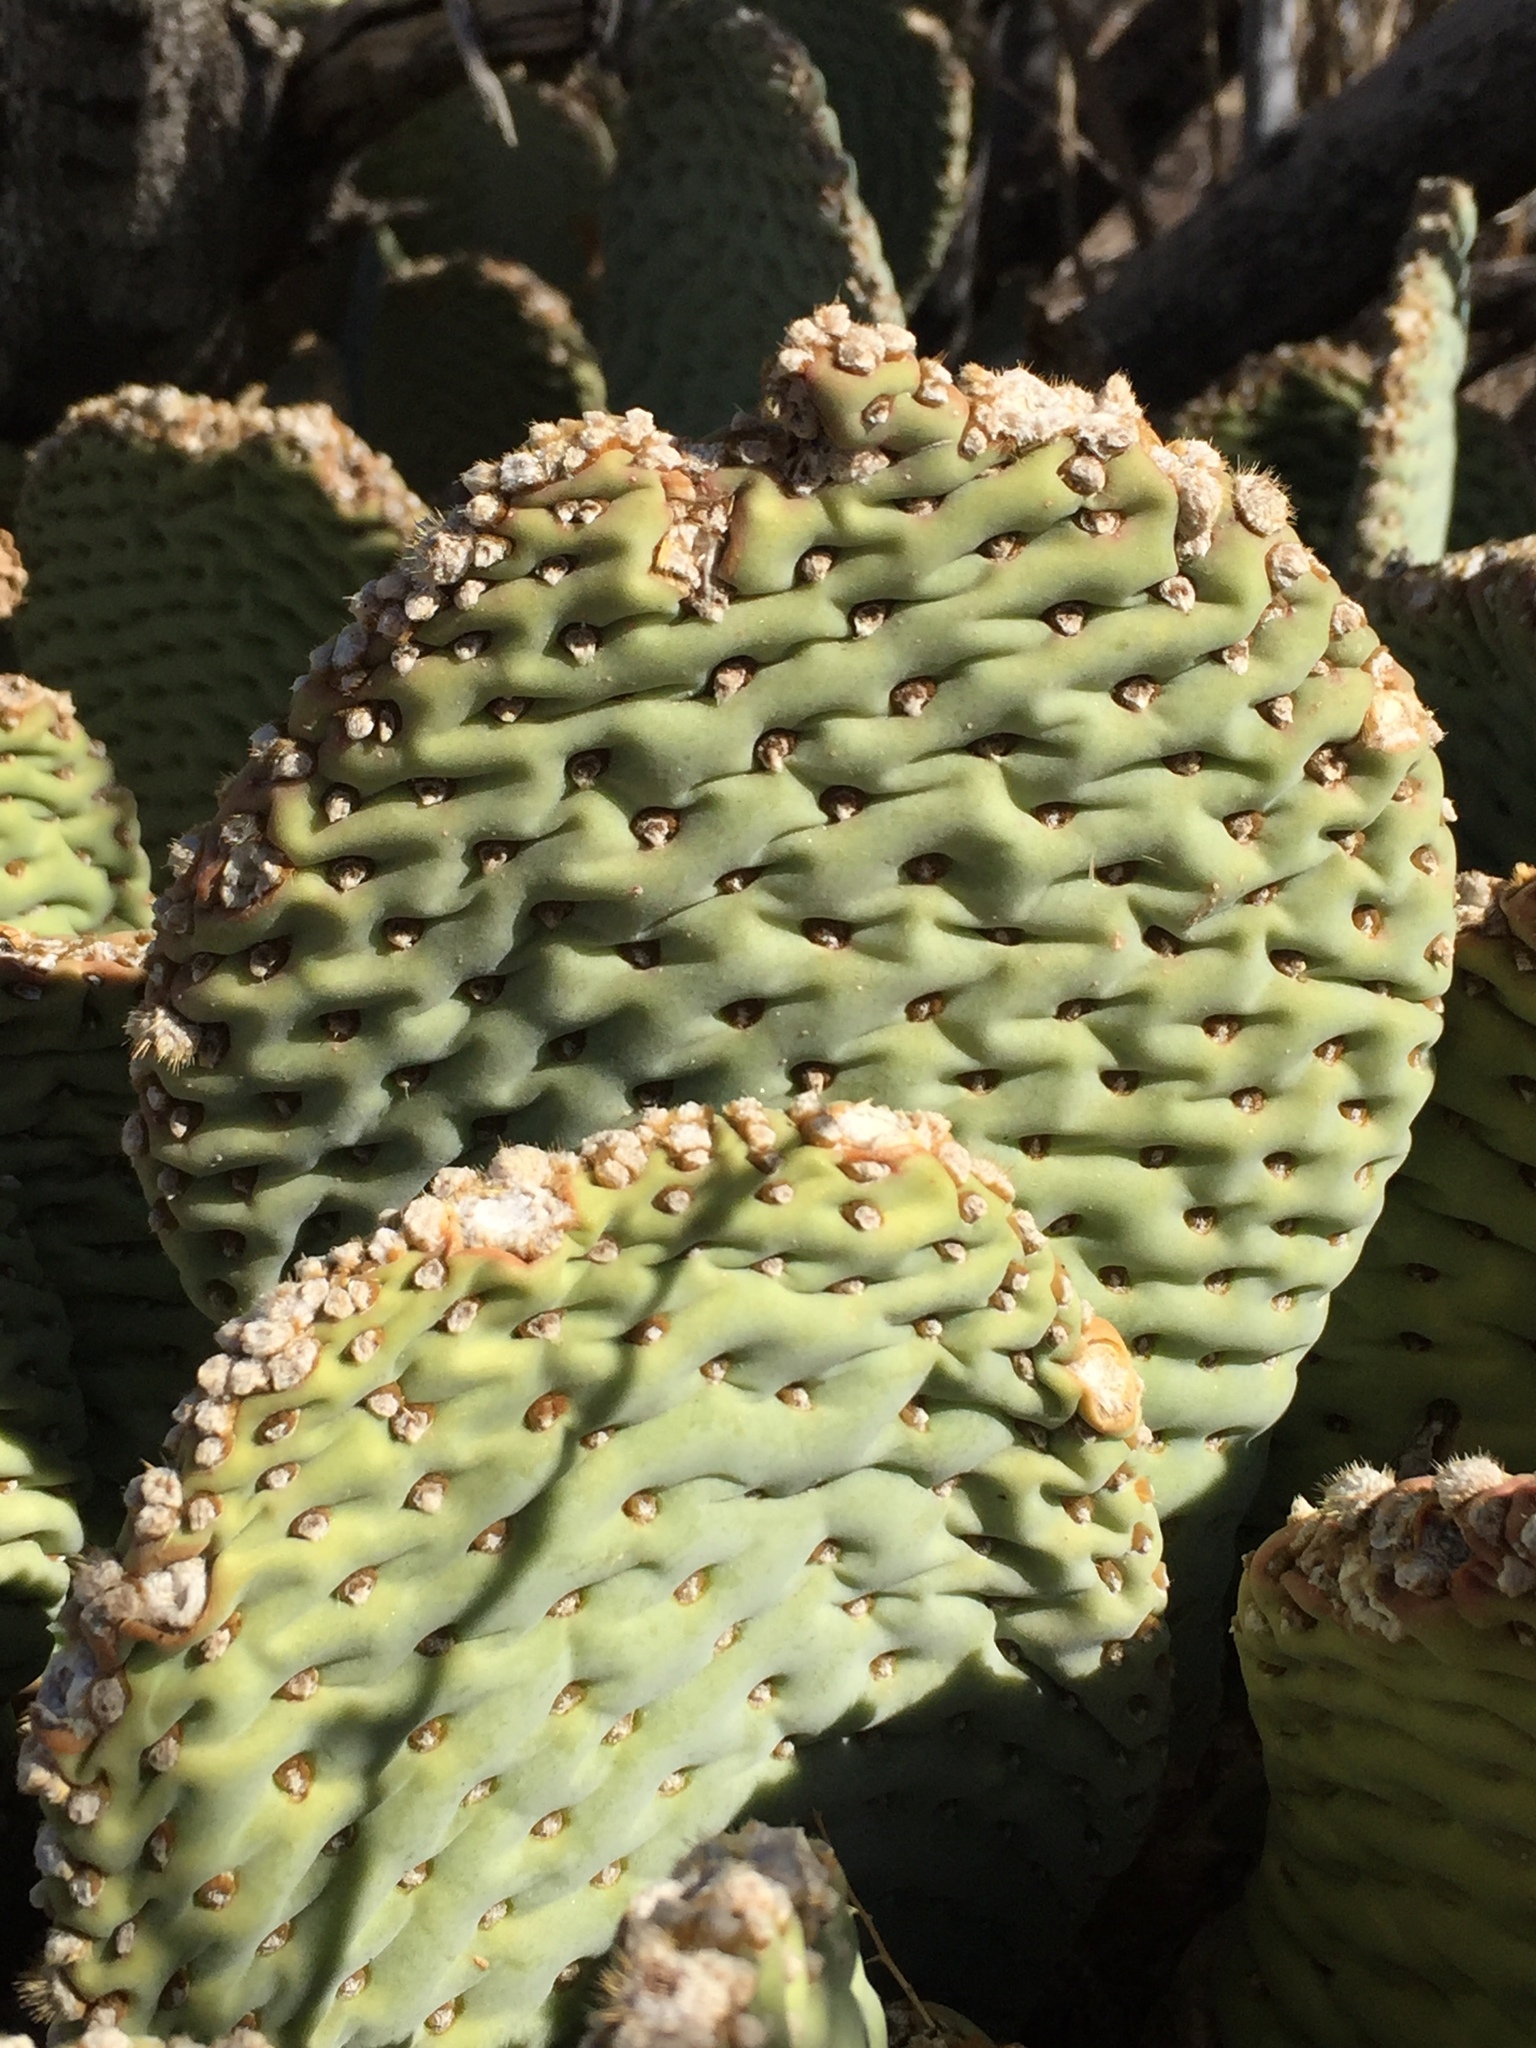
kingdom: Plantae
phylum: Tracheophyta
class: Magnoliopsida
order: Caryophyllales
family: Cactaceae
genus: Opuntia
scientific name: Opuntia basilaris
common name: Beavertail prickly-pear
